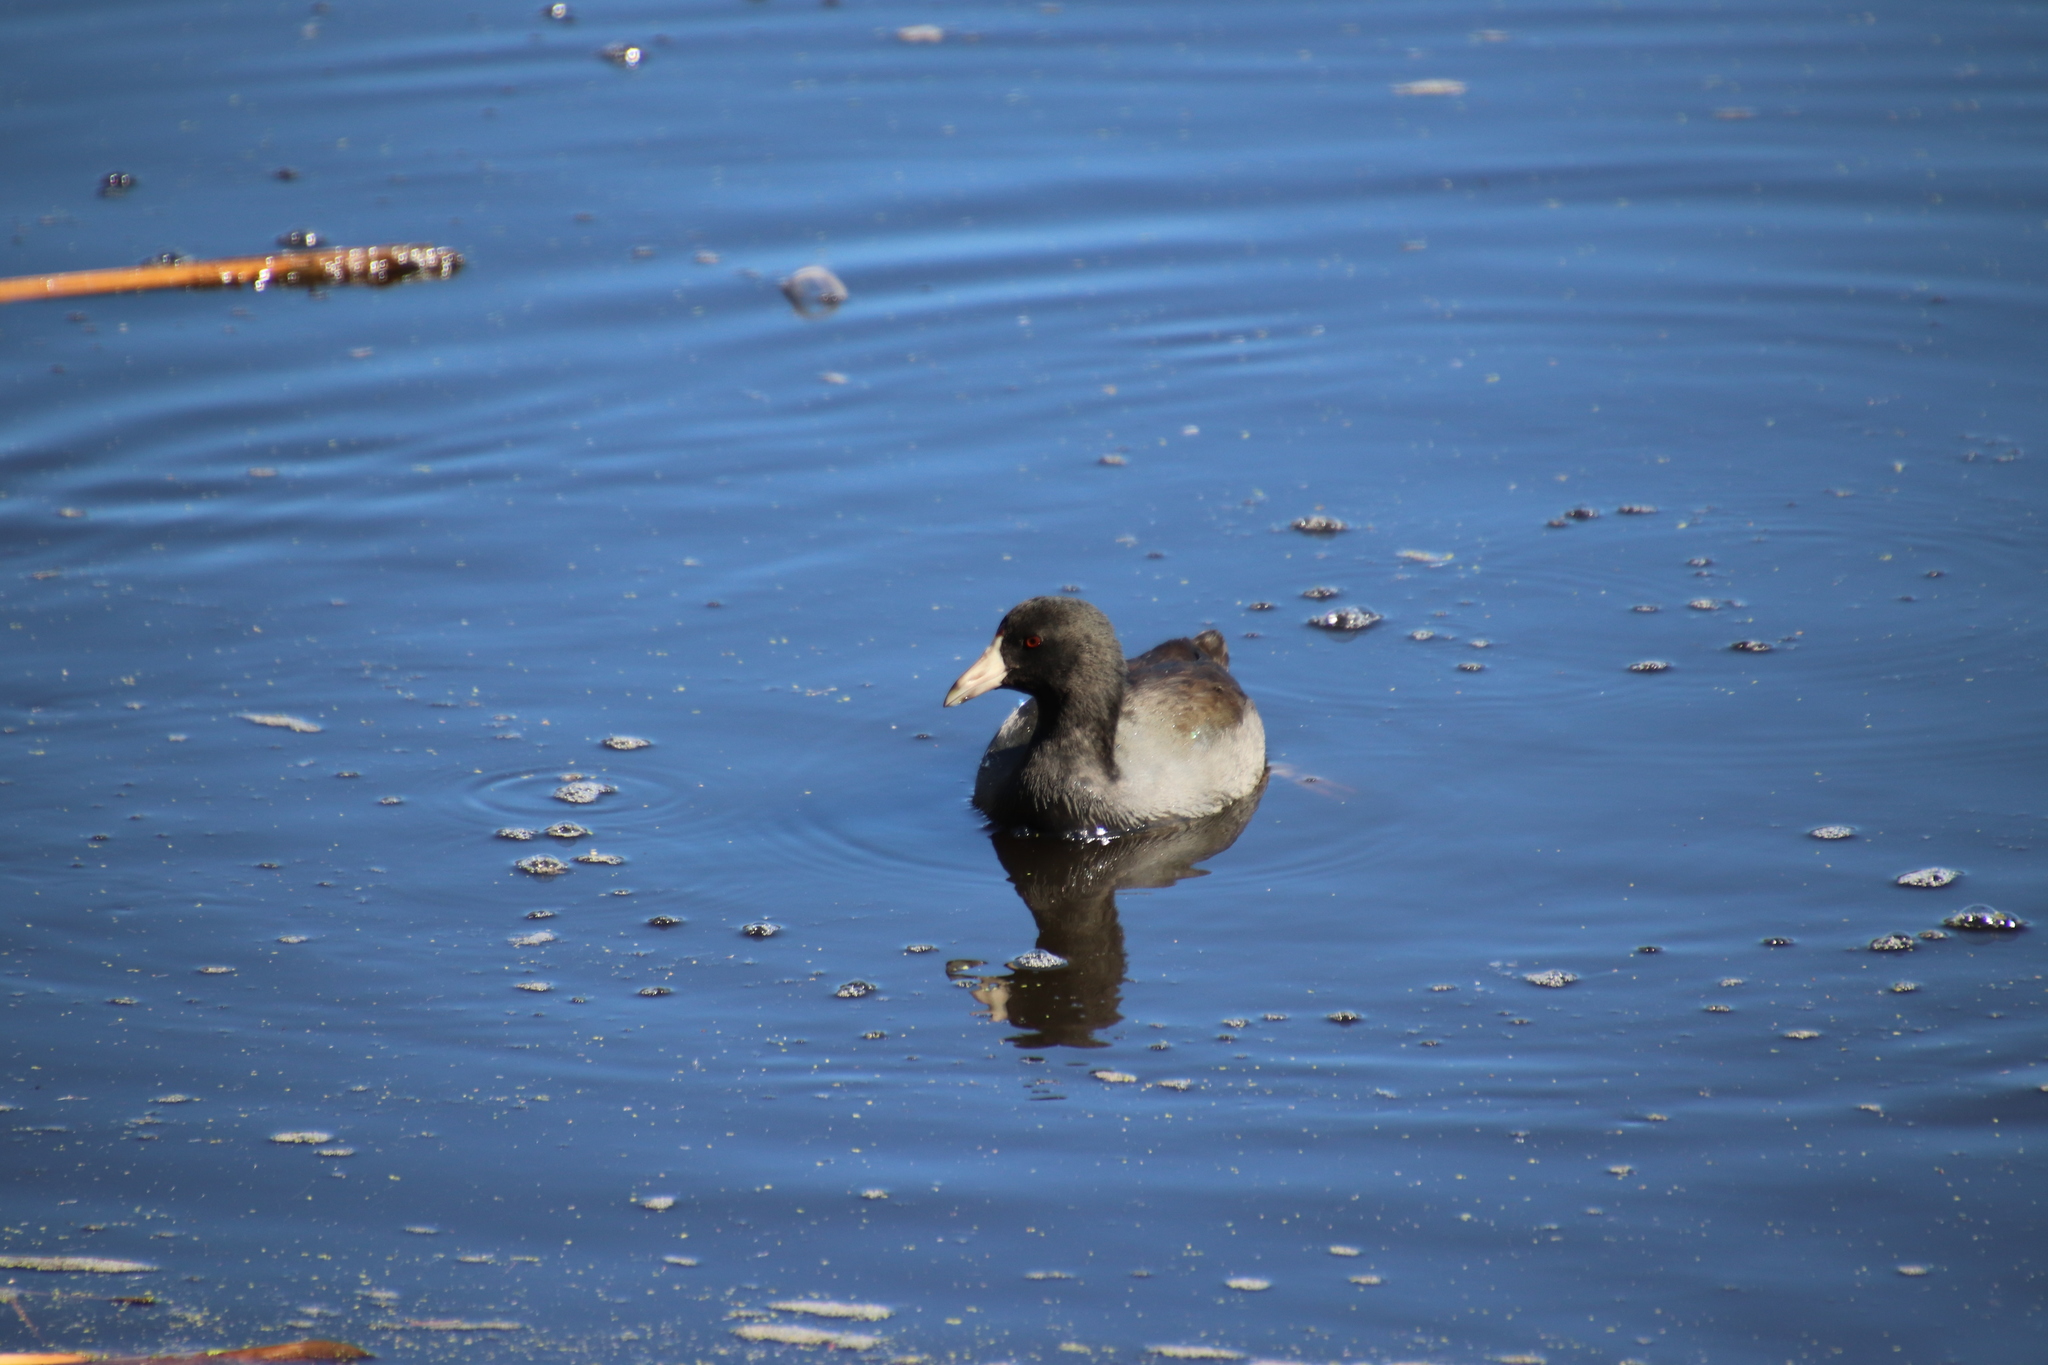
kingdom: Animalia
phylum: Chordata
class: Aves
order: Gruiformes
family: Rallidae
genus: Fulica
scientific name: Fulica americana
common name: American coot
